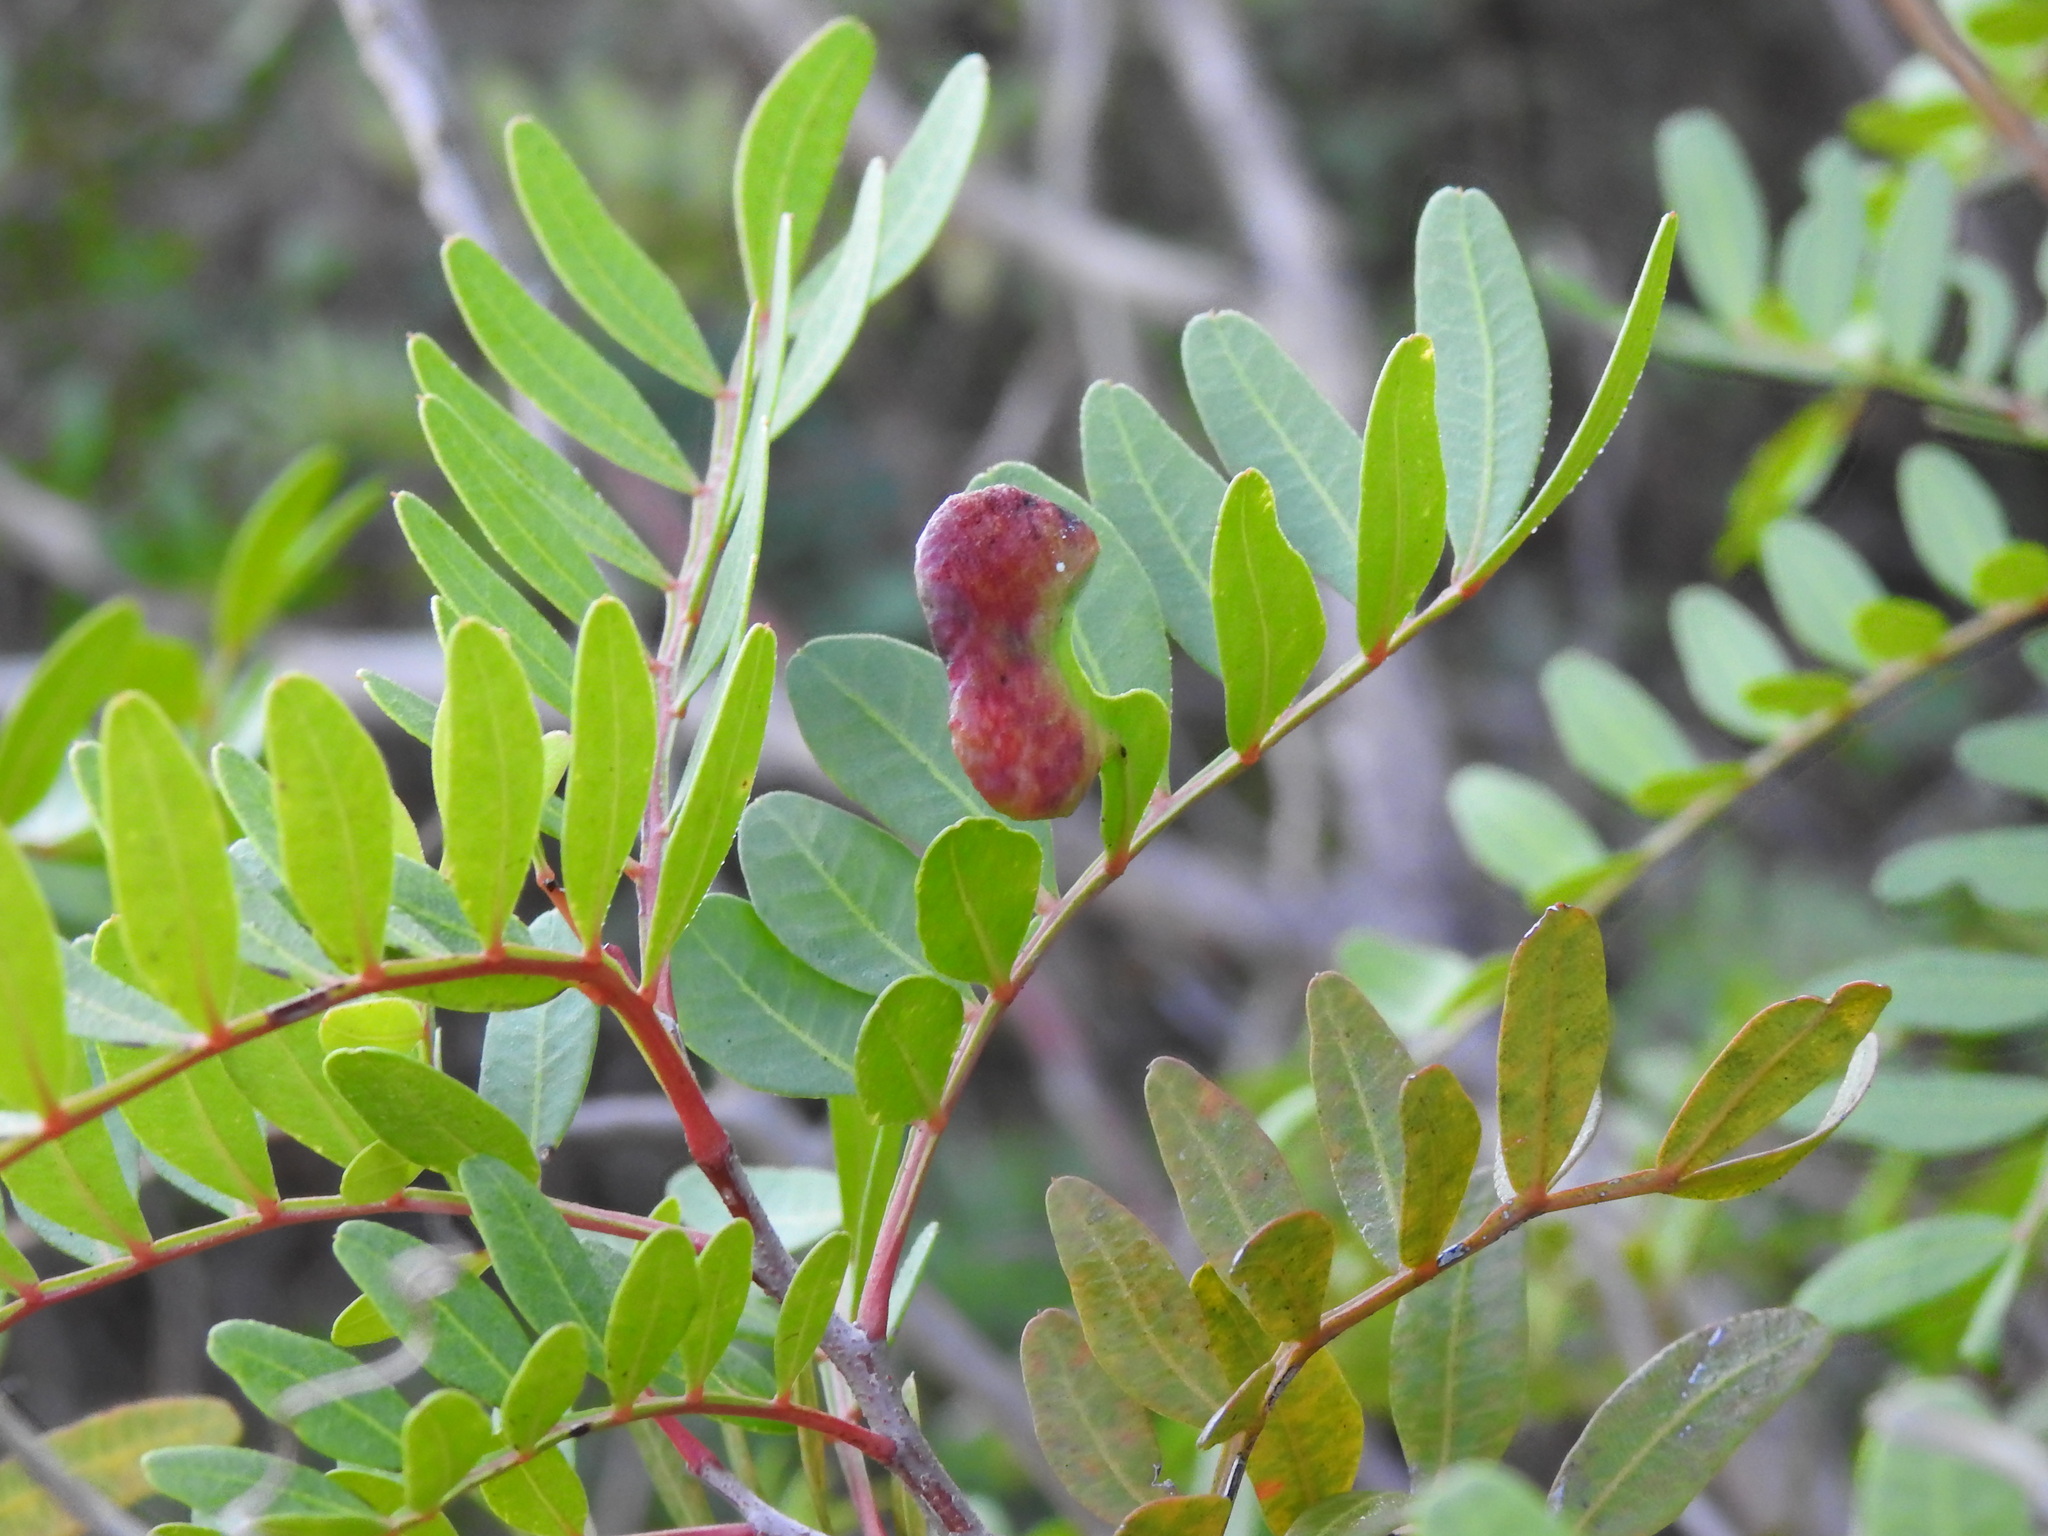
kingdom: Animalia
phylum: Arthropoda
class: Insecta
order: Hemiptera
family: Aphididae
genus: Aploneura
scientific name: Aploneura lentisci
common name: Mealy grass root aphid
